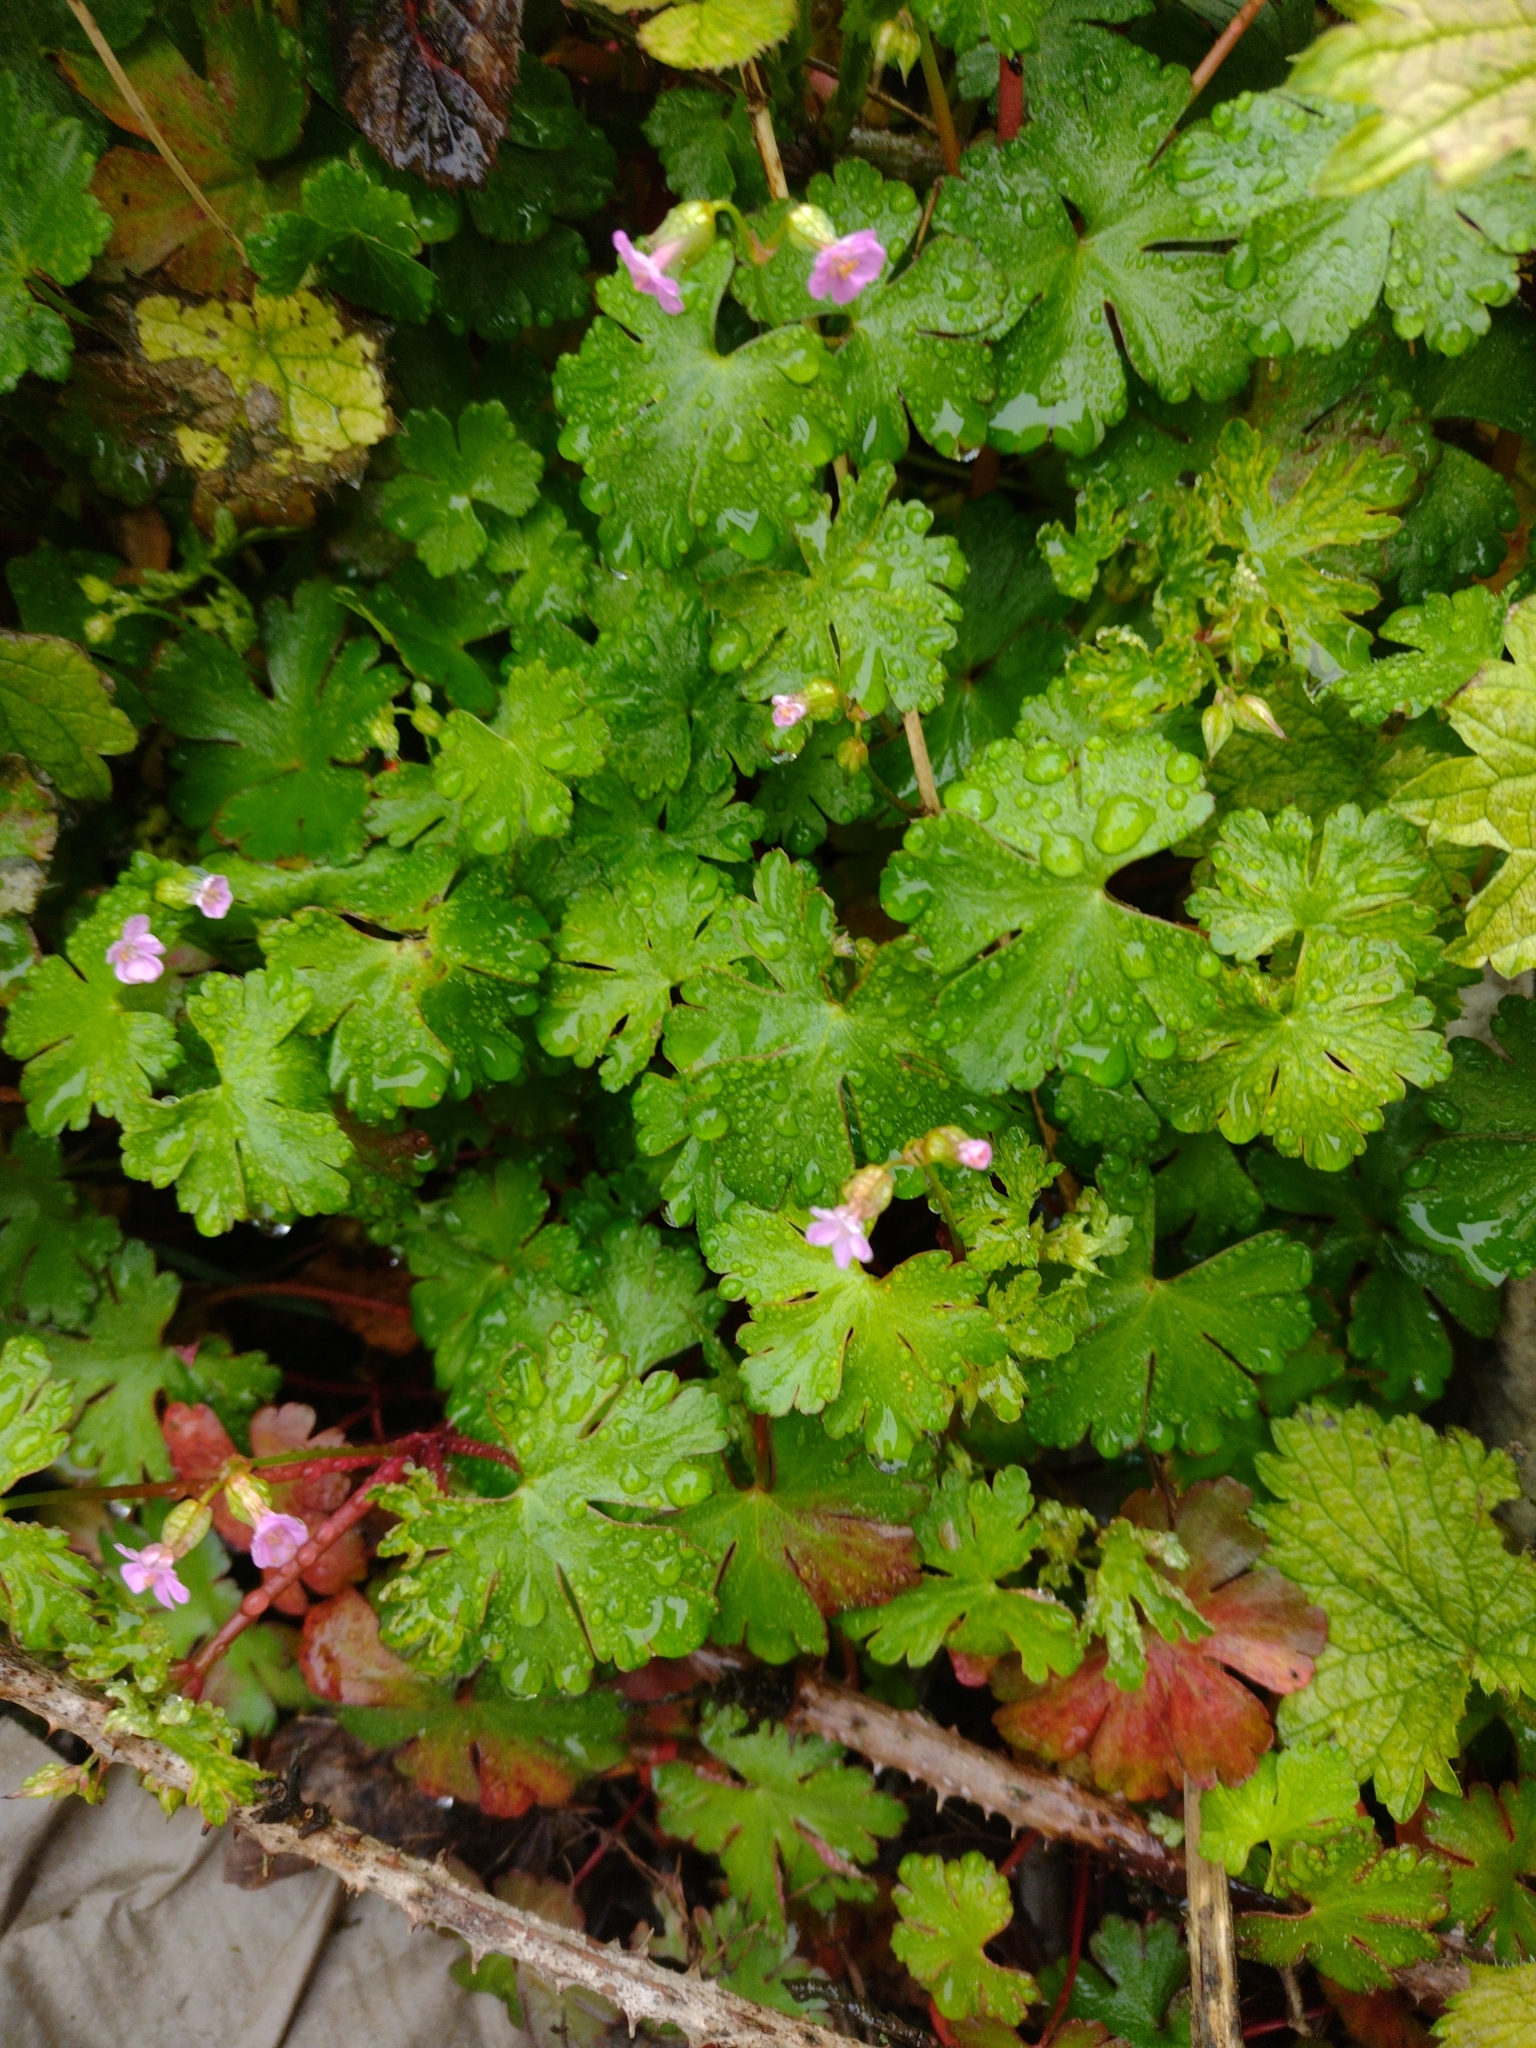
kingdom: Plantae
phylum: Tracheophyta
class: Magnoliopsida
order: Geraniales
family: Geraniaceae
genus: Geranium
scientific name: Geranium lucidum
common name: Shining crane's-bill
